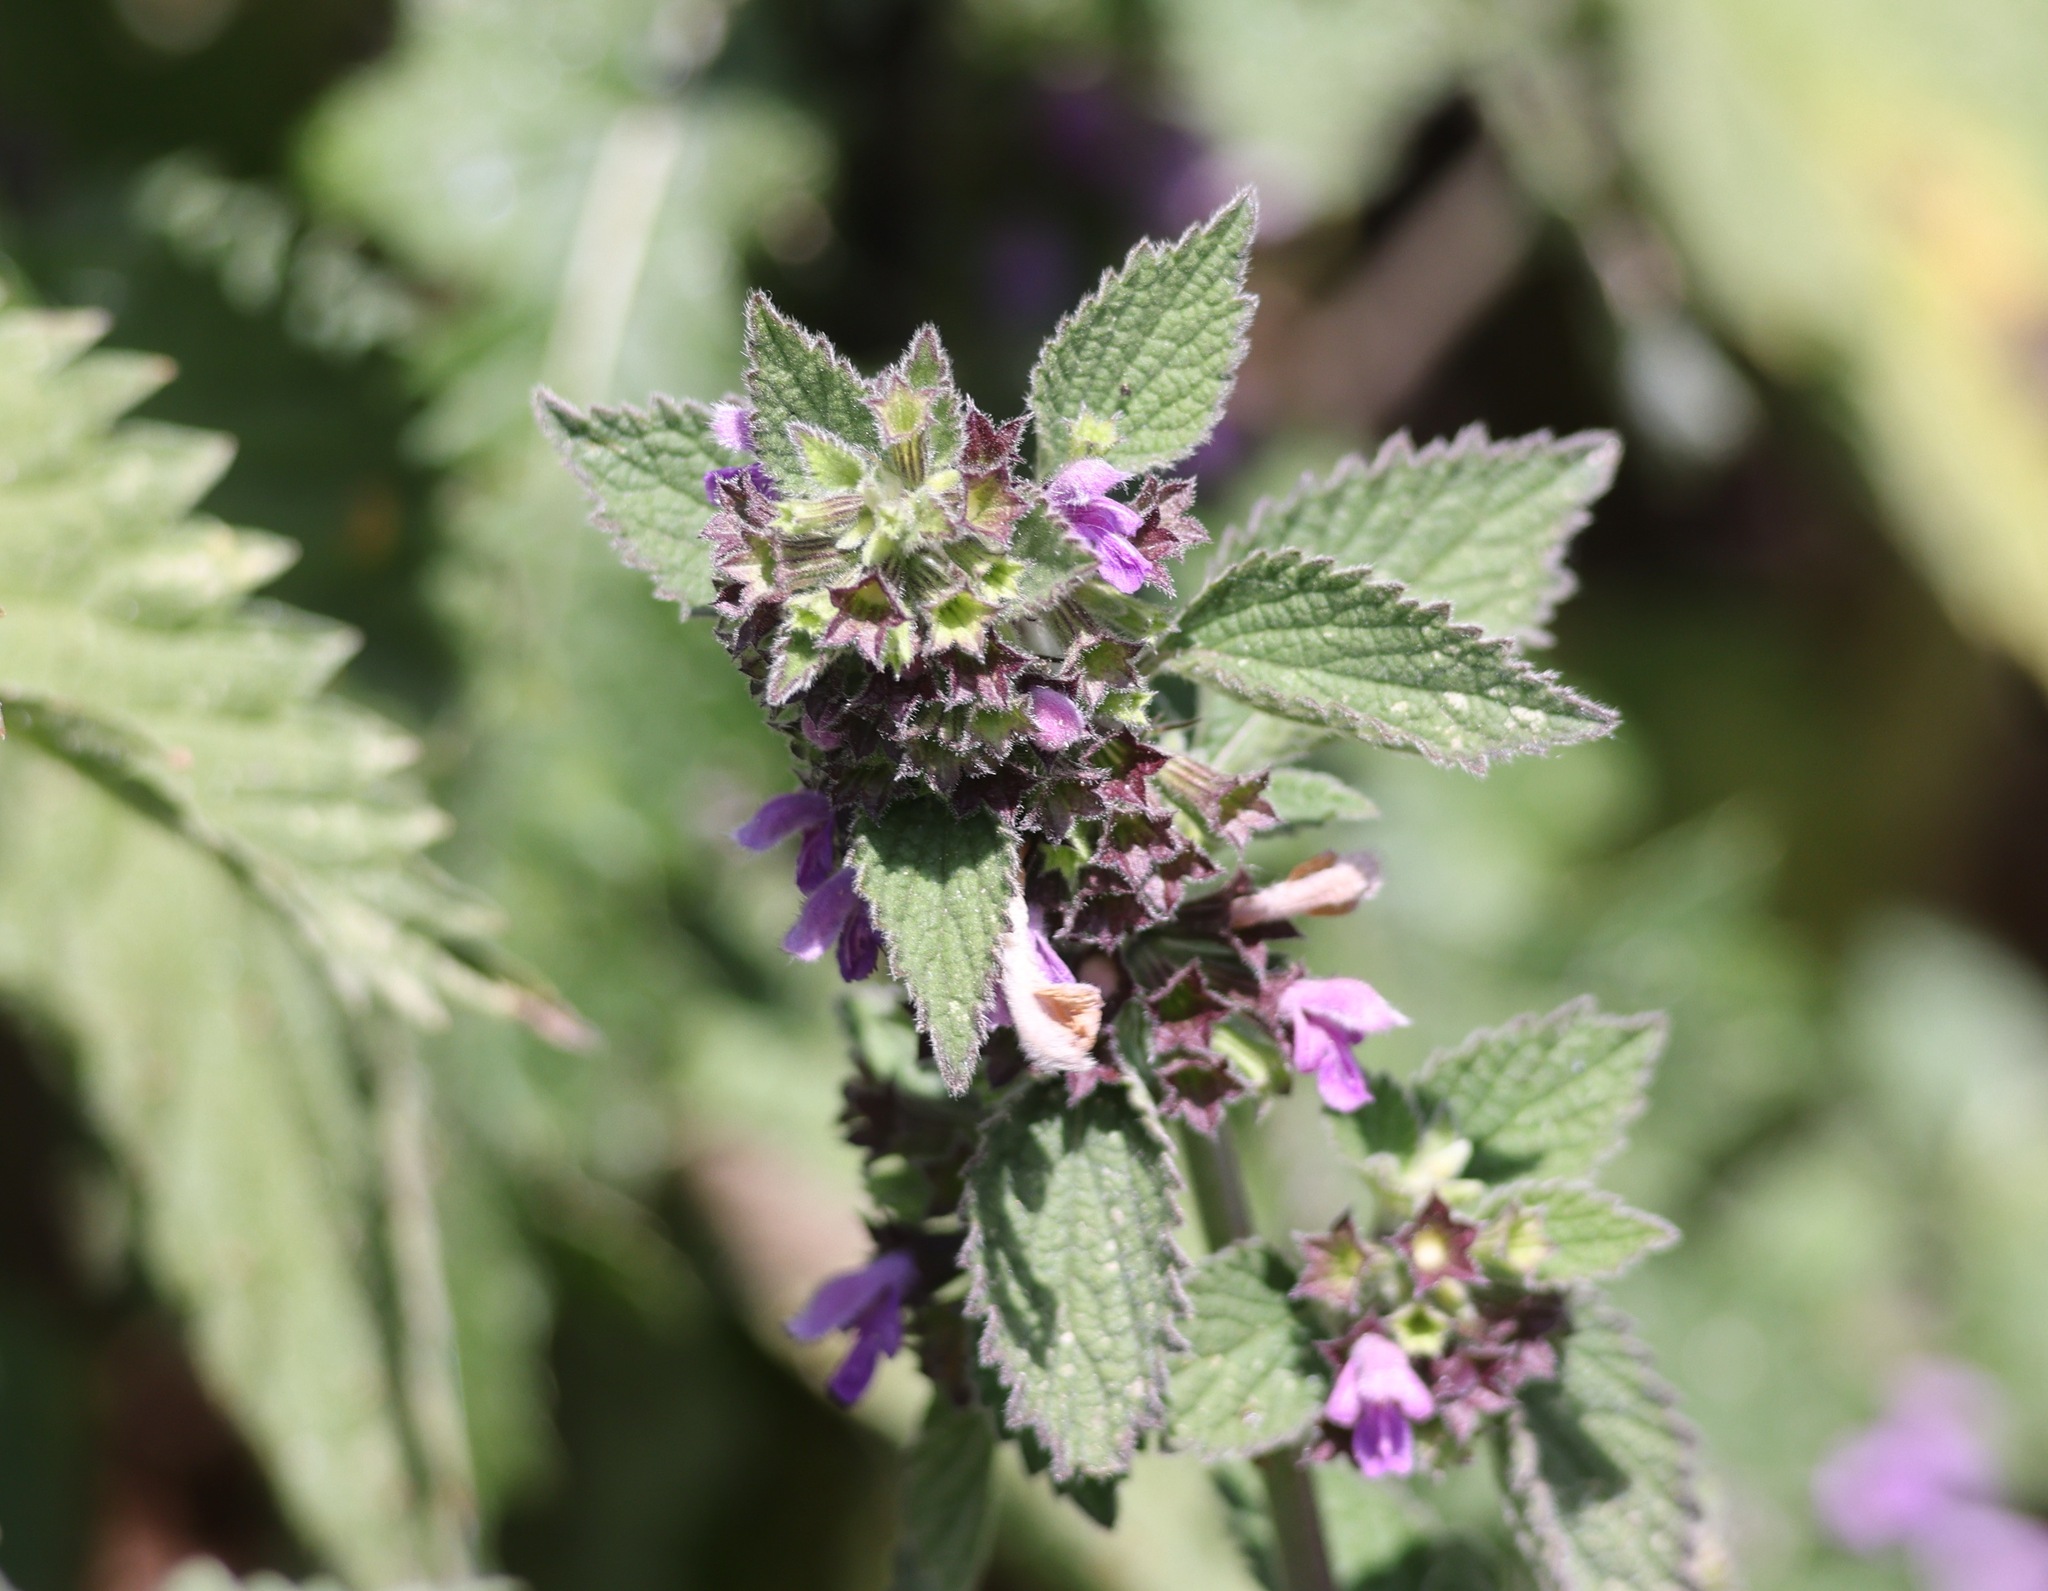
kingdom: Plantae
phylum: Tracheophyta
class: Magnoliopsida
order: Lamiales
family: Lamiaceae
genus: Ballota
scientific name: Ballota nigra
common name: Black horehound
